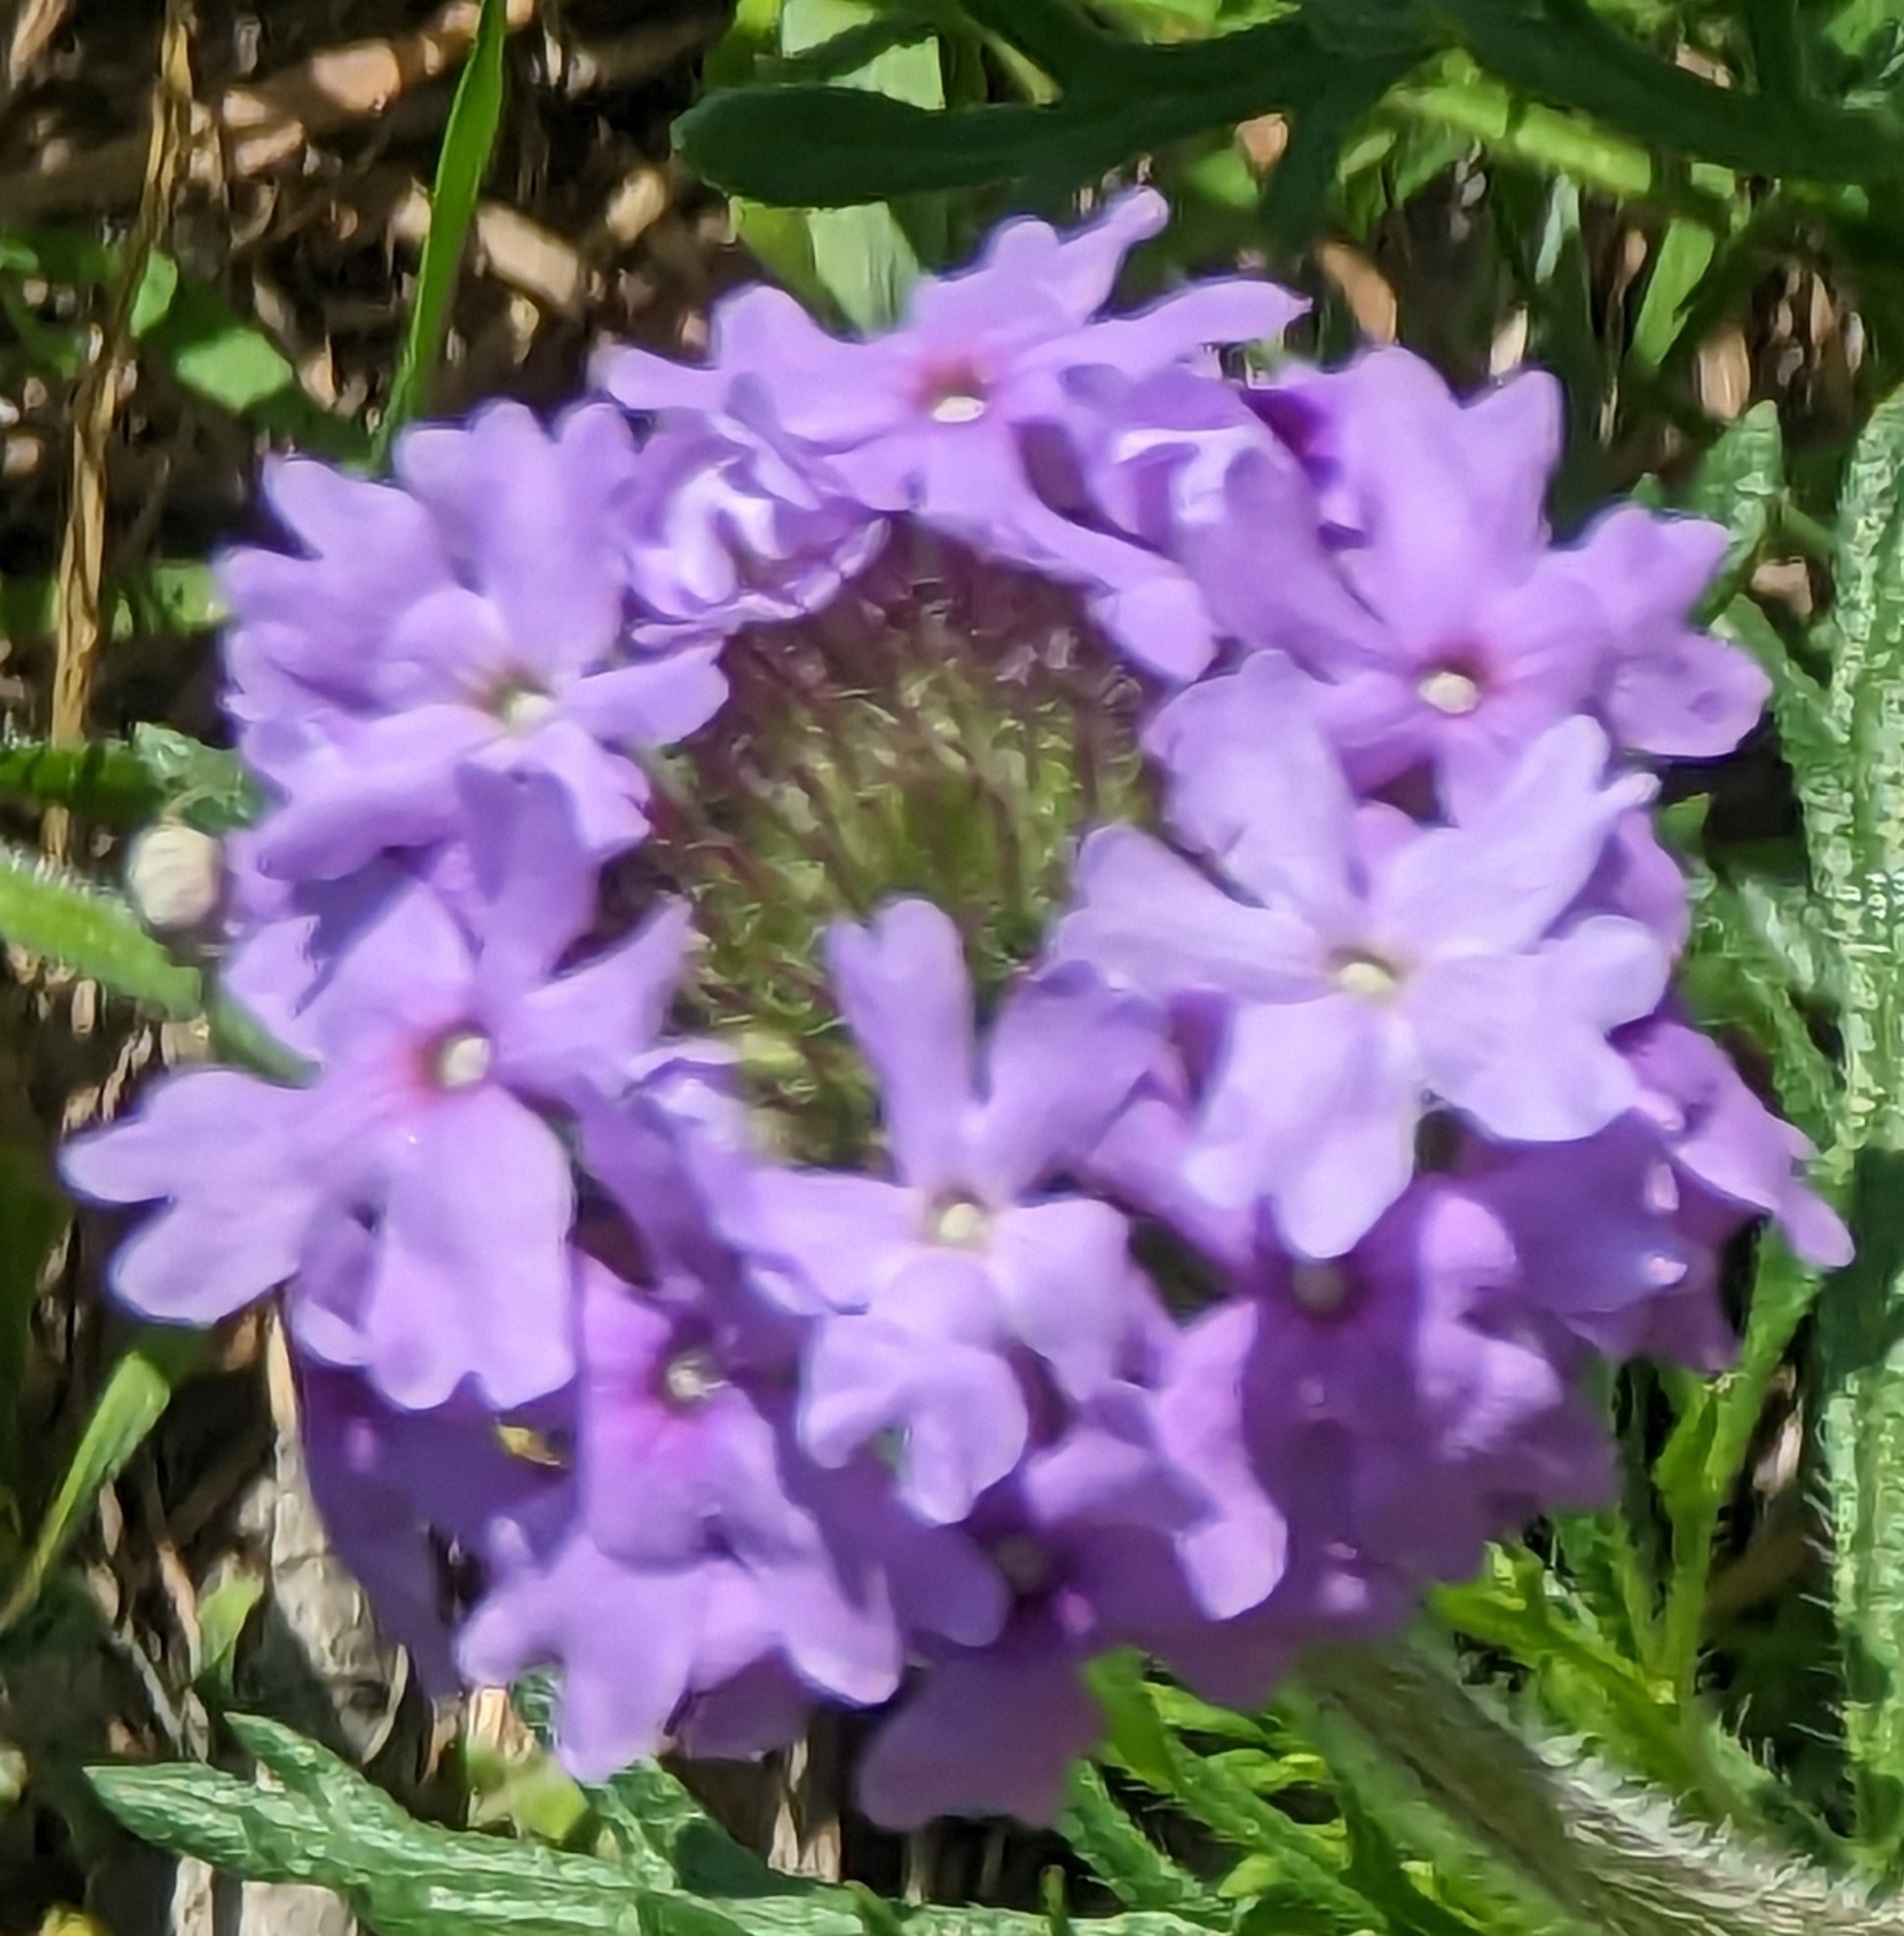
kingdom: Plantae
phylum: Tracheophyta
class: Magnoliopsida
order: Lamiales
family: Verbenaceae
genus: Verbena
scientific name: Verbena bipinnatifida
